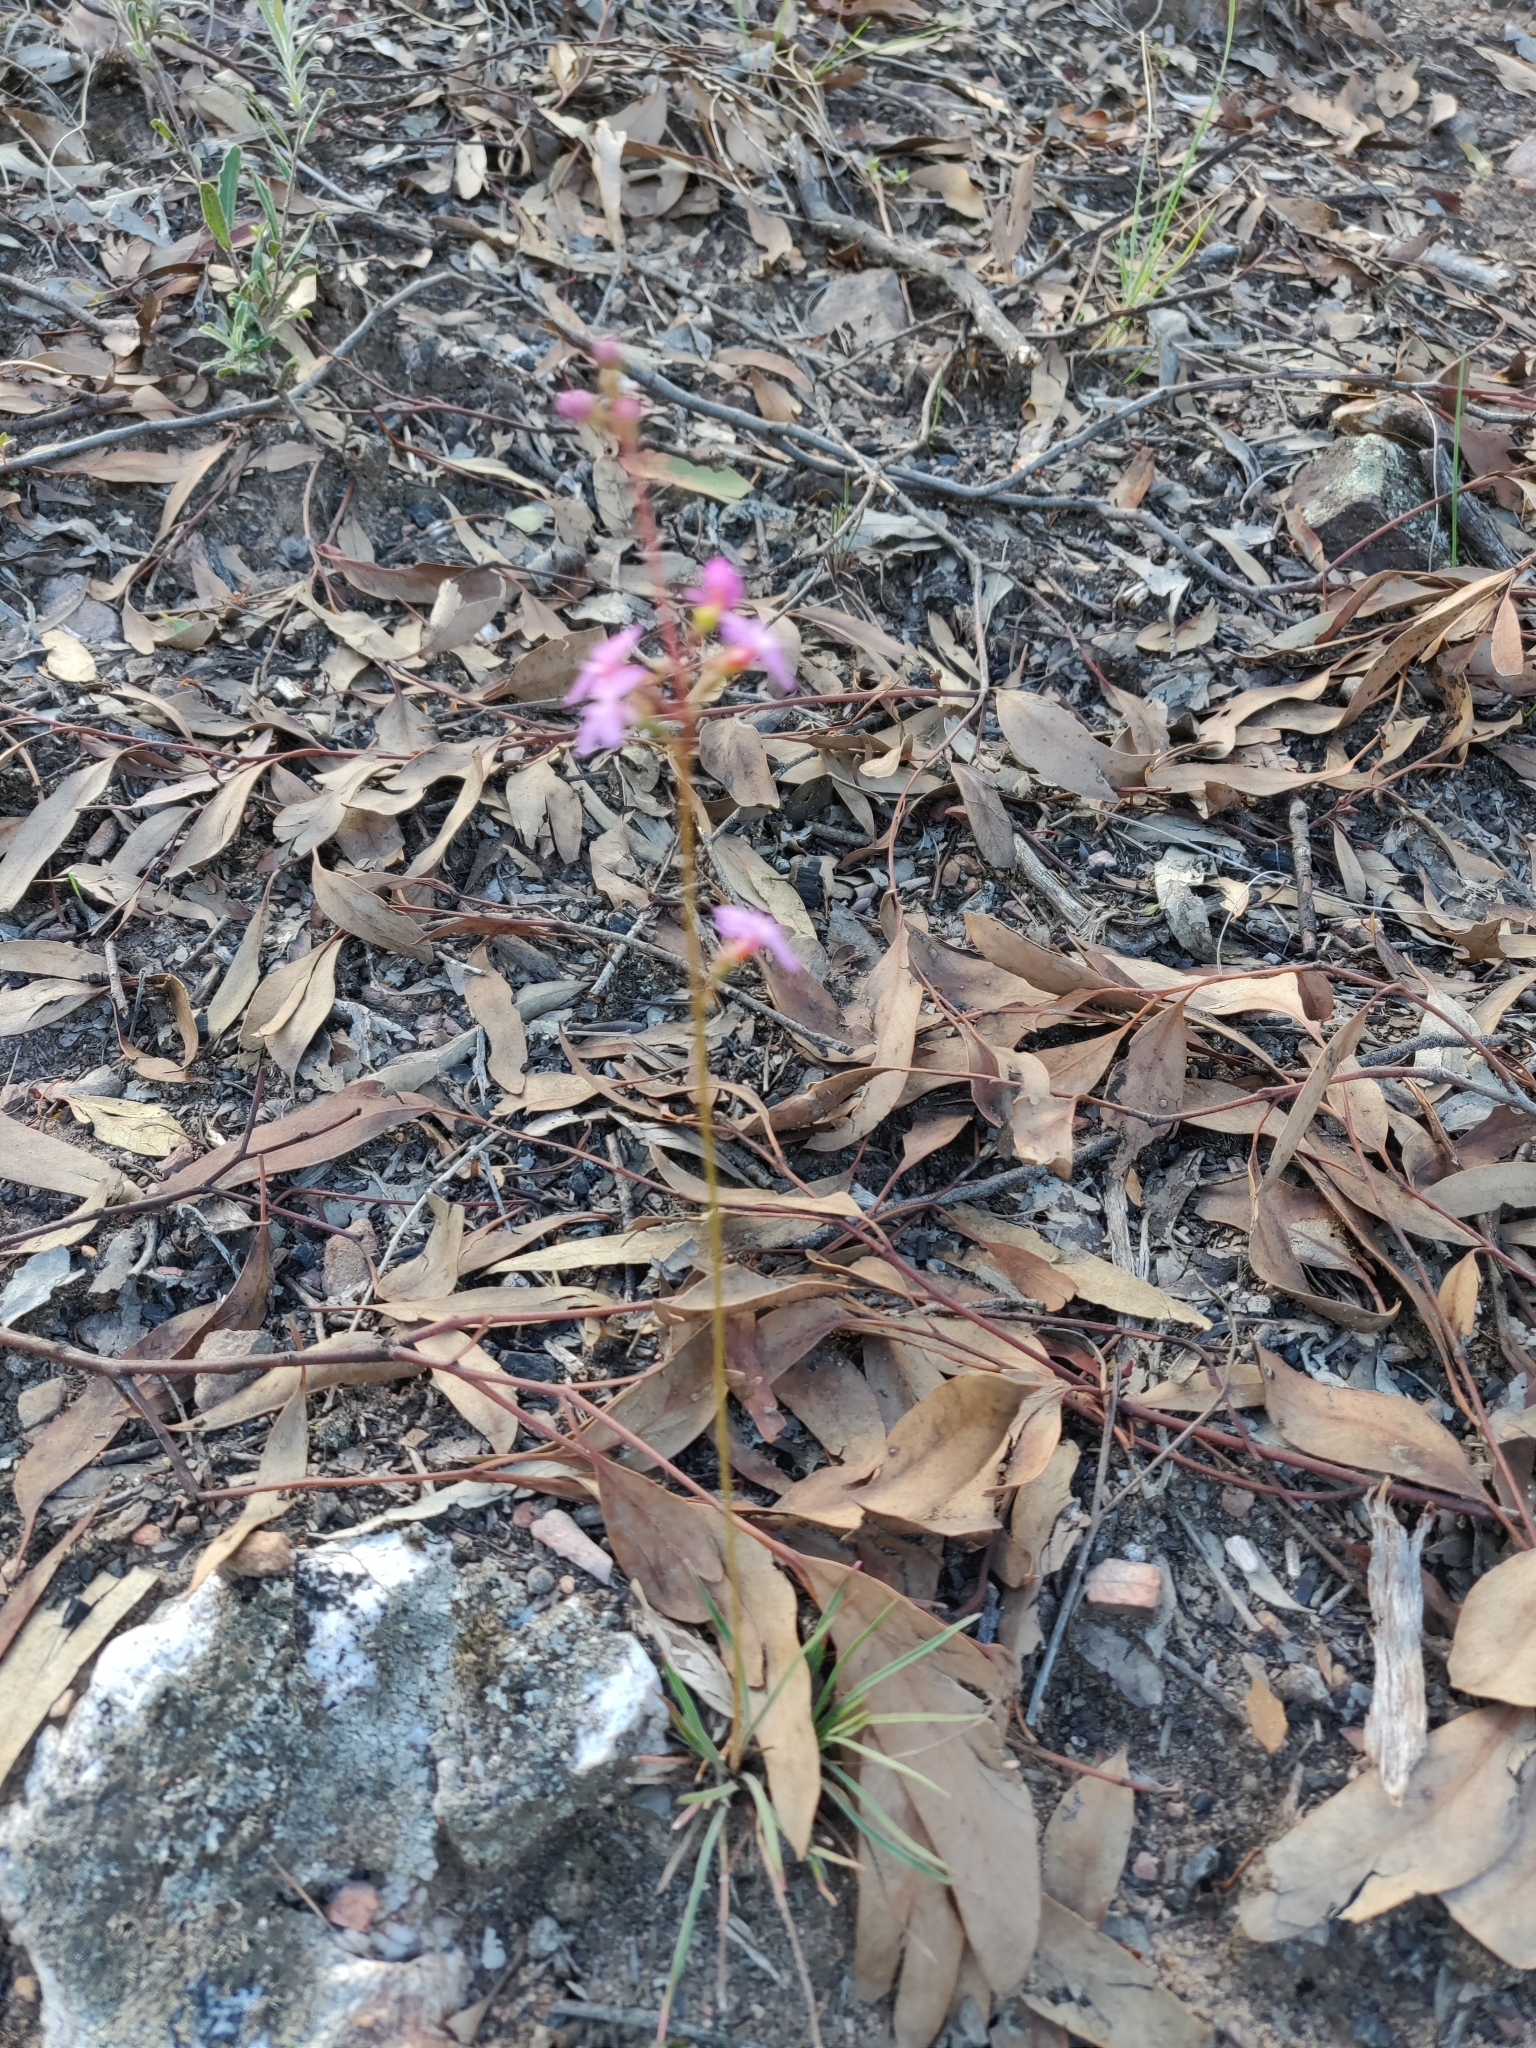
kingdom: Plantae
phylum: Tracheophyta
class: Magnoliopsida
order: Asterales
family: Stylidiaceae
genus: Stylidium
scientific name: Stylidium graminifolium
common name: Grass triggerplant
